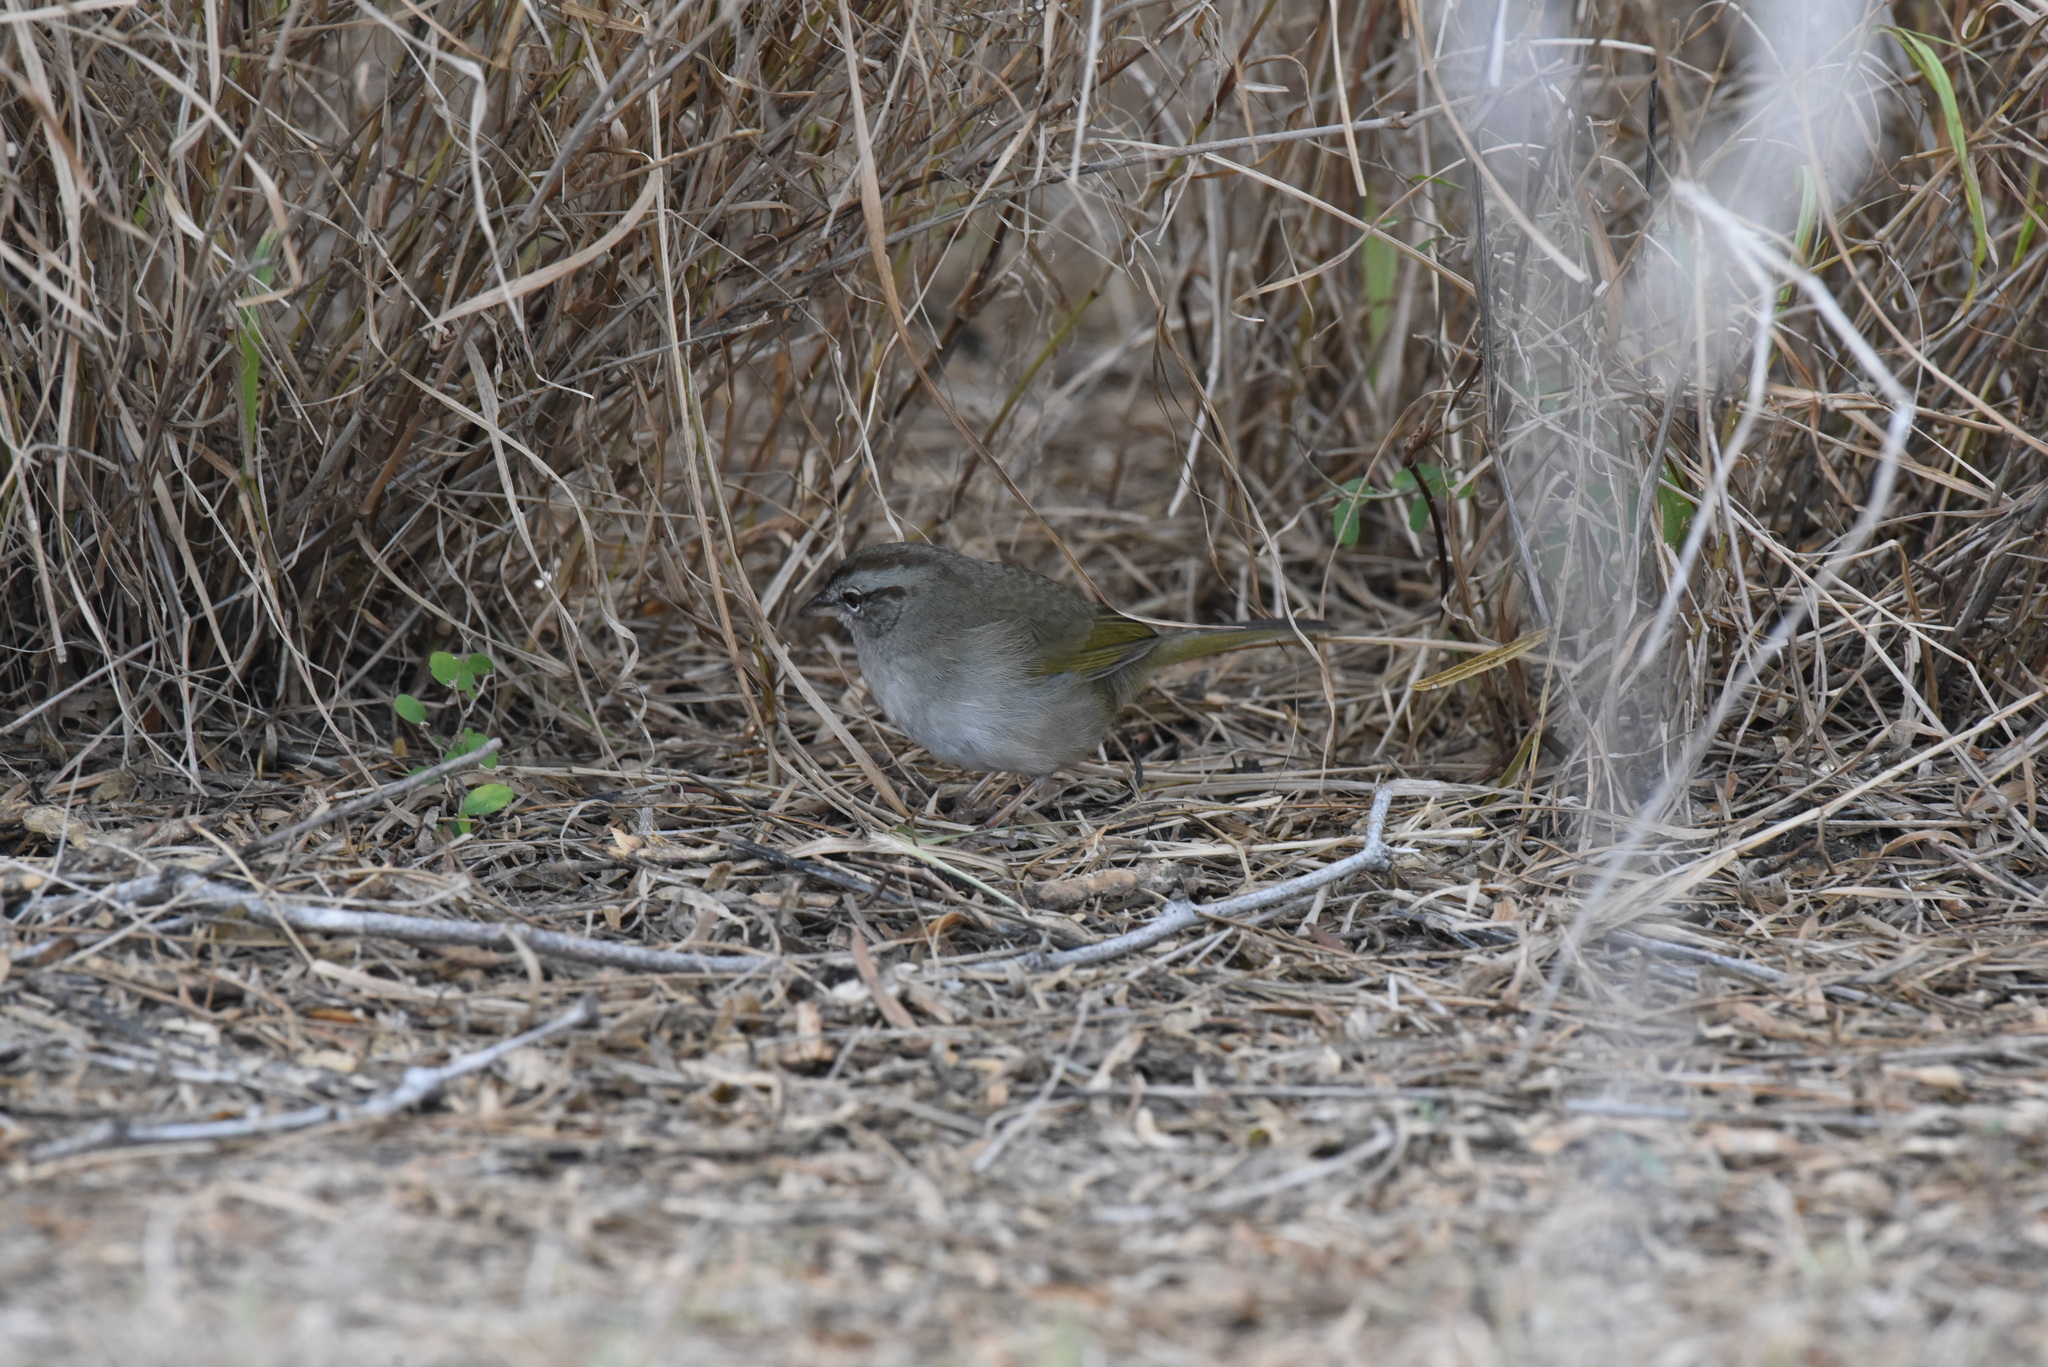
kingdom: Animalia
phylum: Chordata
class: Aves
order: Passeriformes
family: Passerellidae
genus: Arremonops
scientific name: Arremonops rufivirgatus
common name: Olive sparrow
